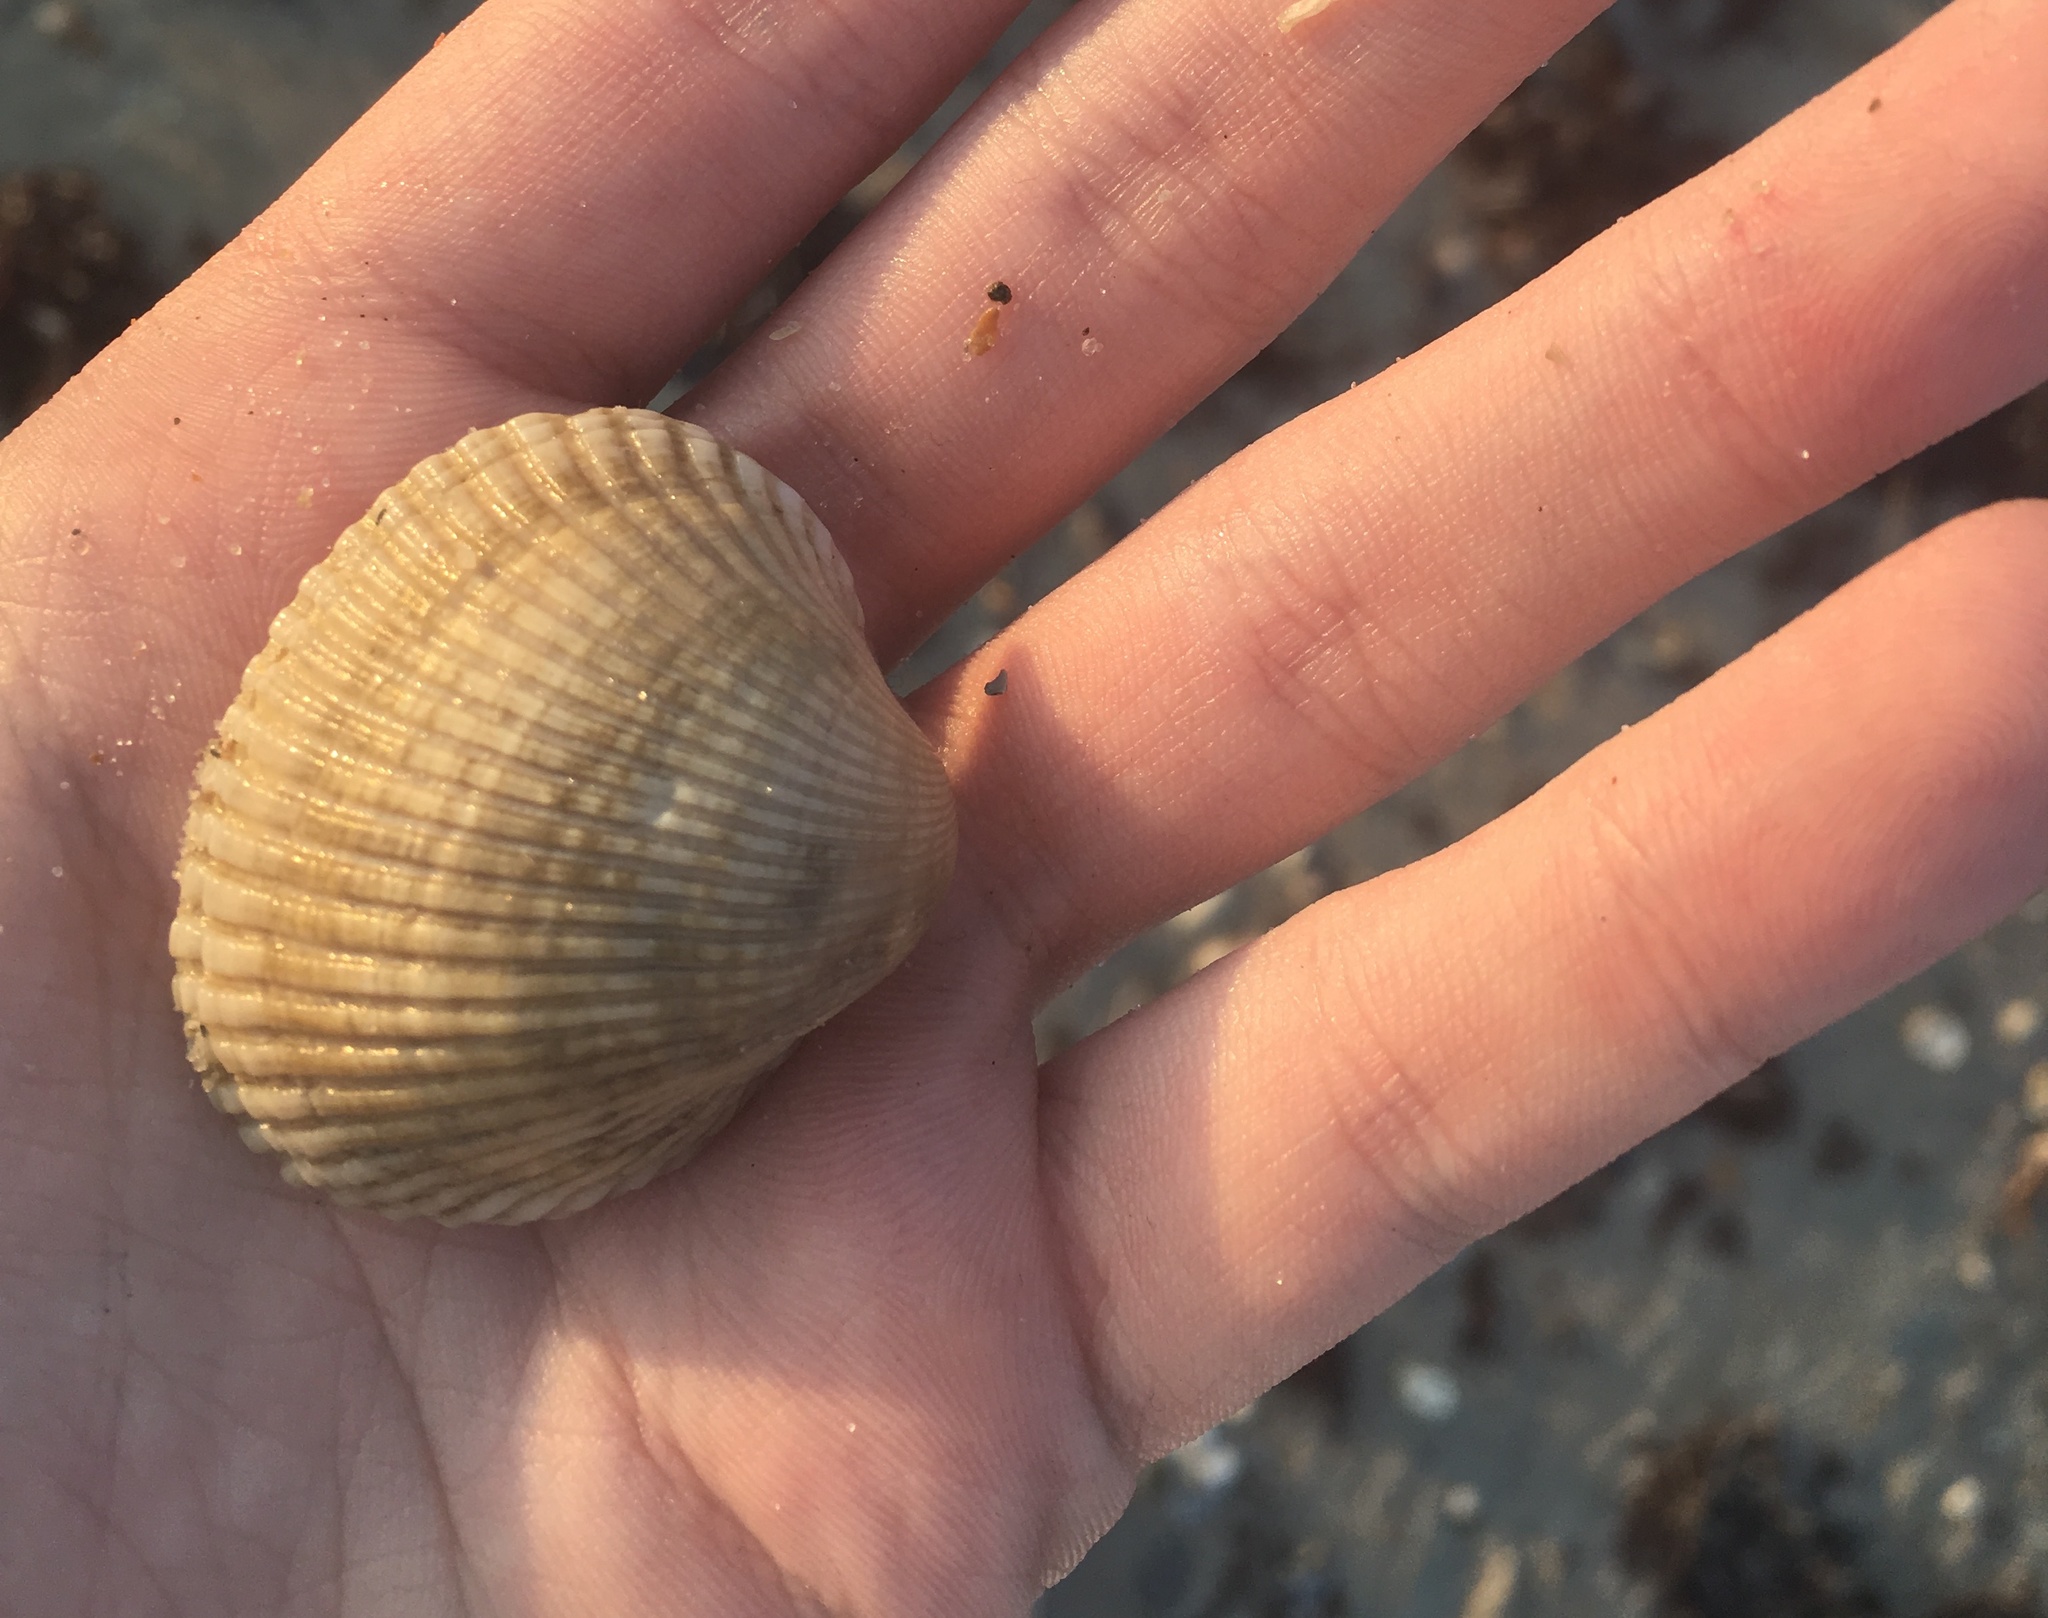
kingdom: Animalia
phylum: Mollusca
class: Bivalvia
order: Arcida
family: Arcidae
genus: Lunarca
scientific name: Lunarca ovalis
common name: Blood ark
